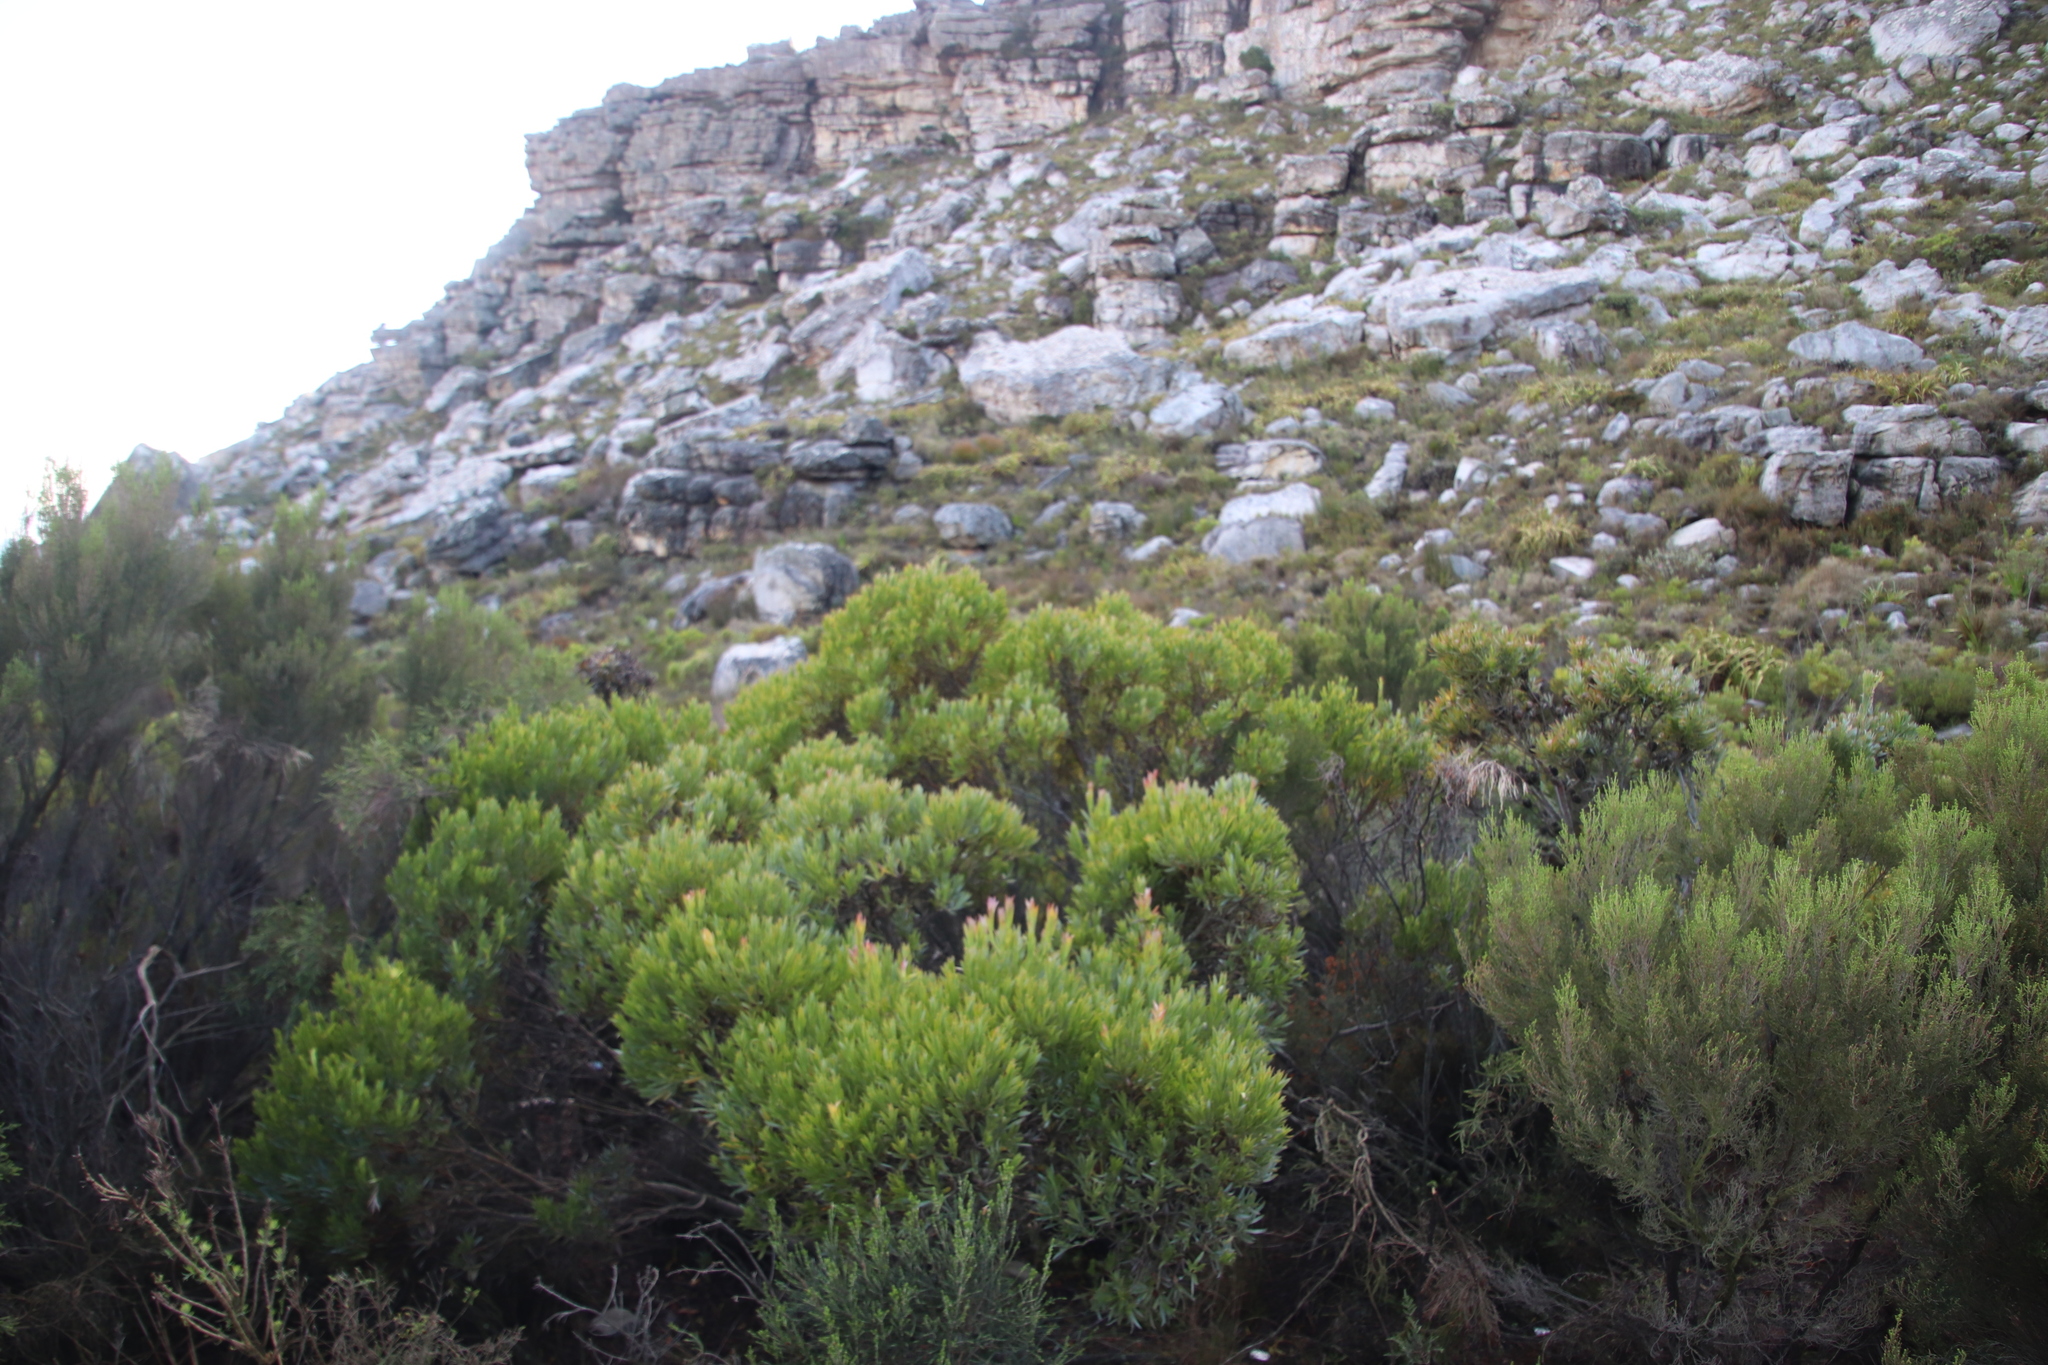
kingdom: Plantae
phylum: Tracheophyta
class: Magnoliopsida
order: Proteales
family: Proteaceae
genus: Leucadendron
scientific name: Leucadendron xanthoconus
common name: Sickle-leaf conebush
